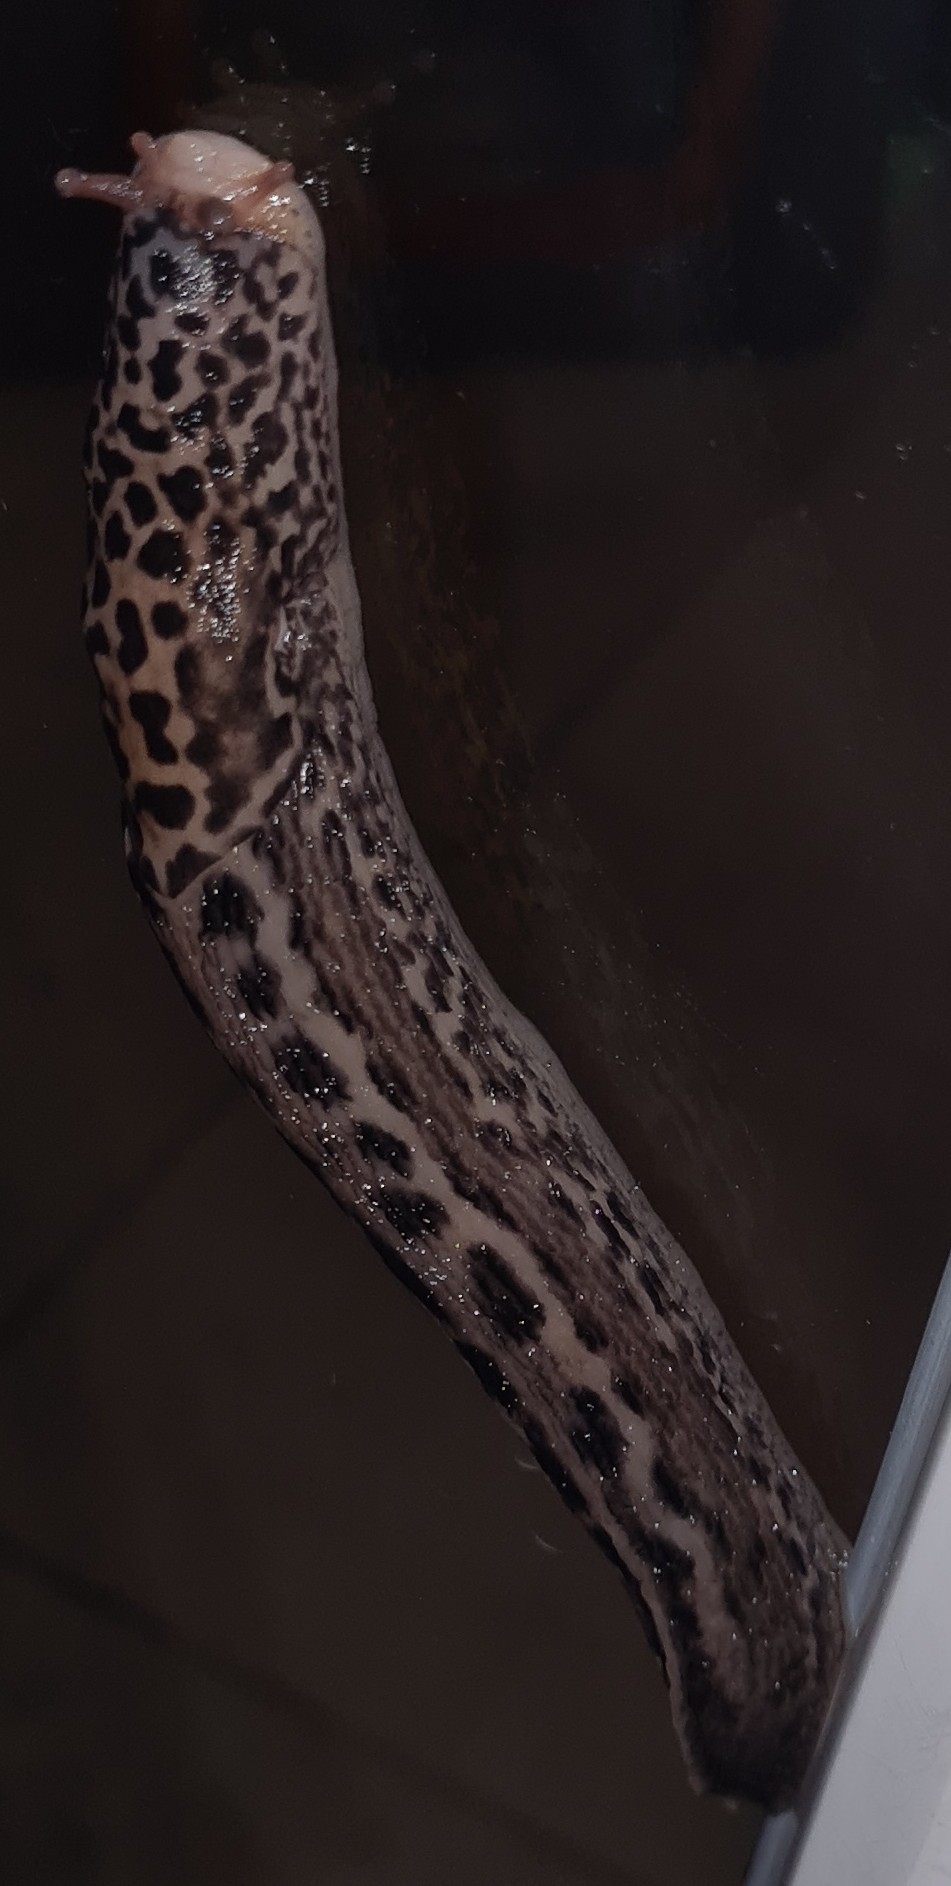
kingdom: Animalia
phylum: Mollusca
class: Gastropoda
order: Stylommatophora
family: Limacidae
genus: Limax
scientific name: Limax maximus
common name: Great grey slug
